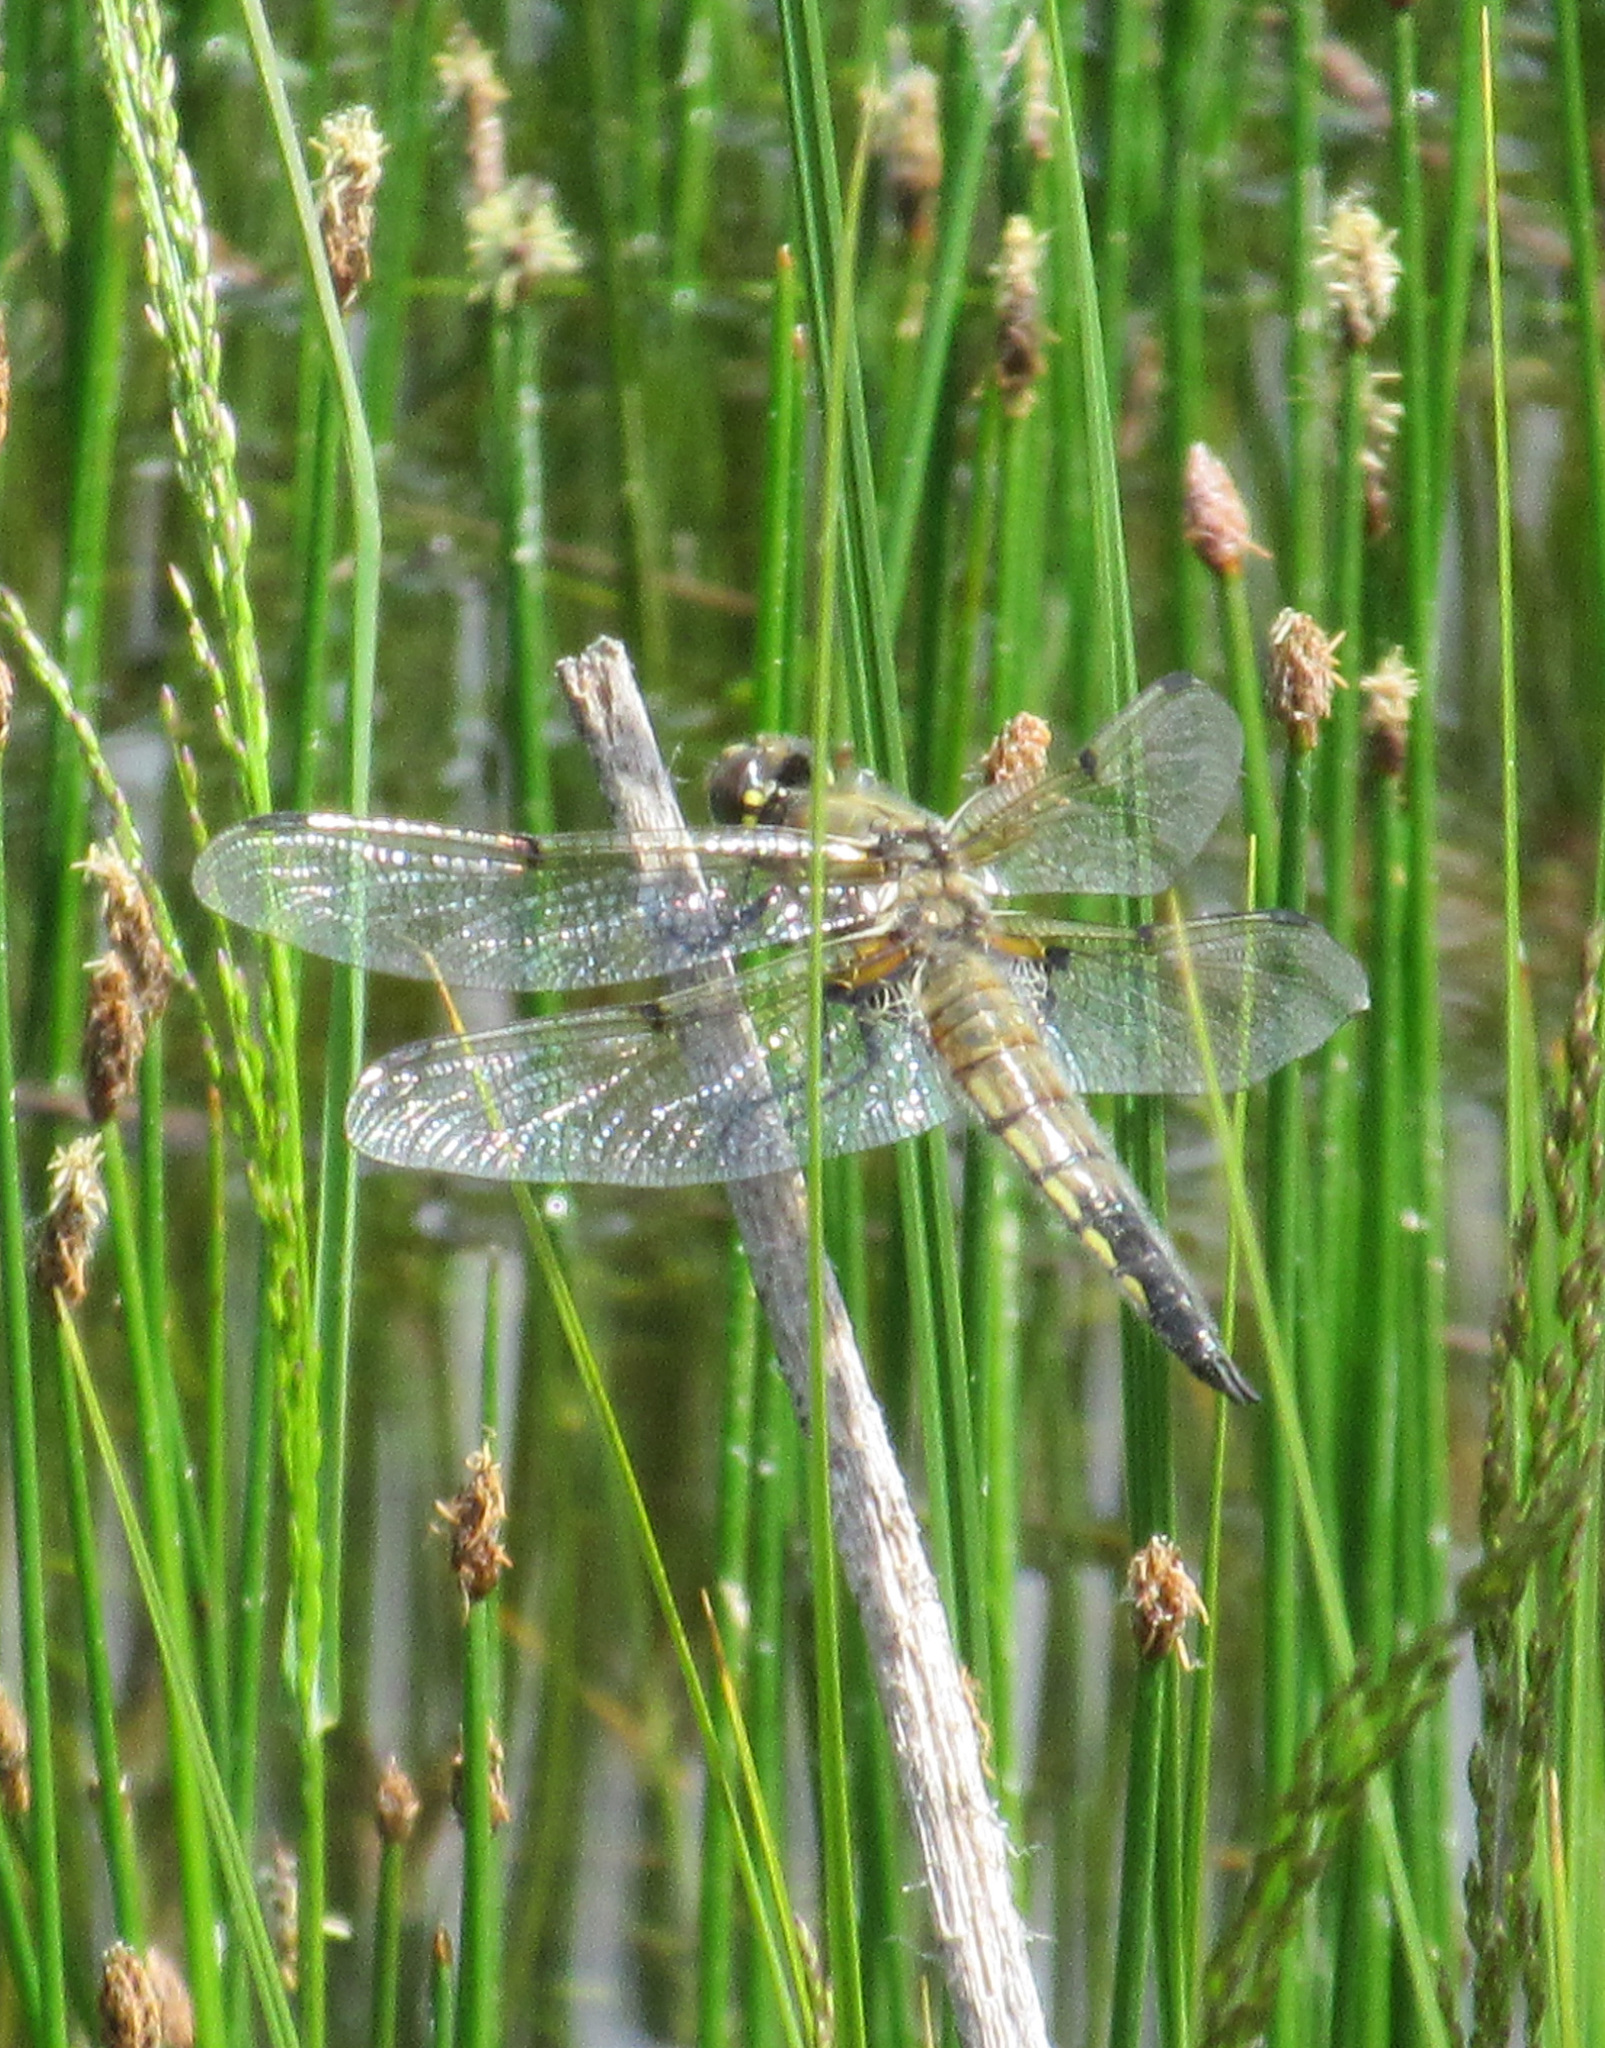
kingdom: Animalia
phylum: Arthropoda
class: Insecta
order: Odonata
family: Libellulidae
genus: Libellula
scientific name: Libellula quadrimaculata
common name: Four-spotted chaser
